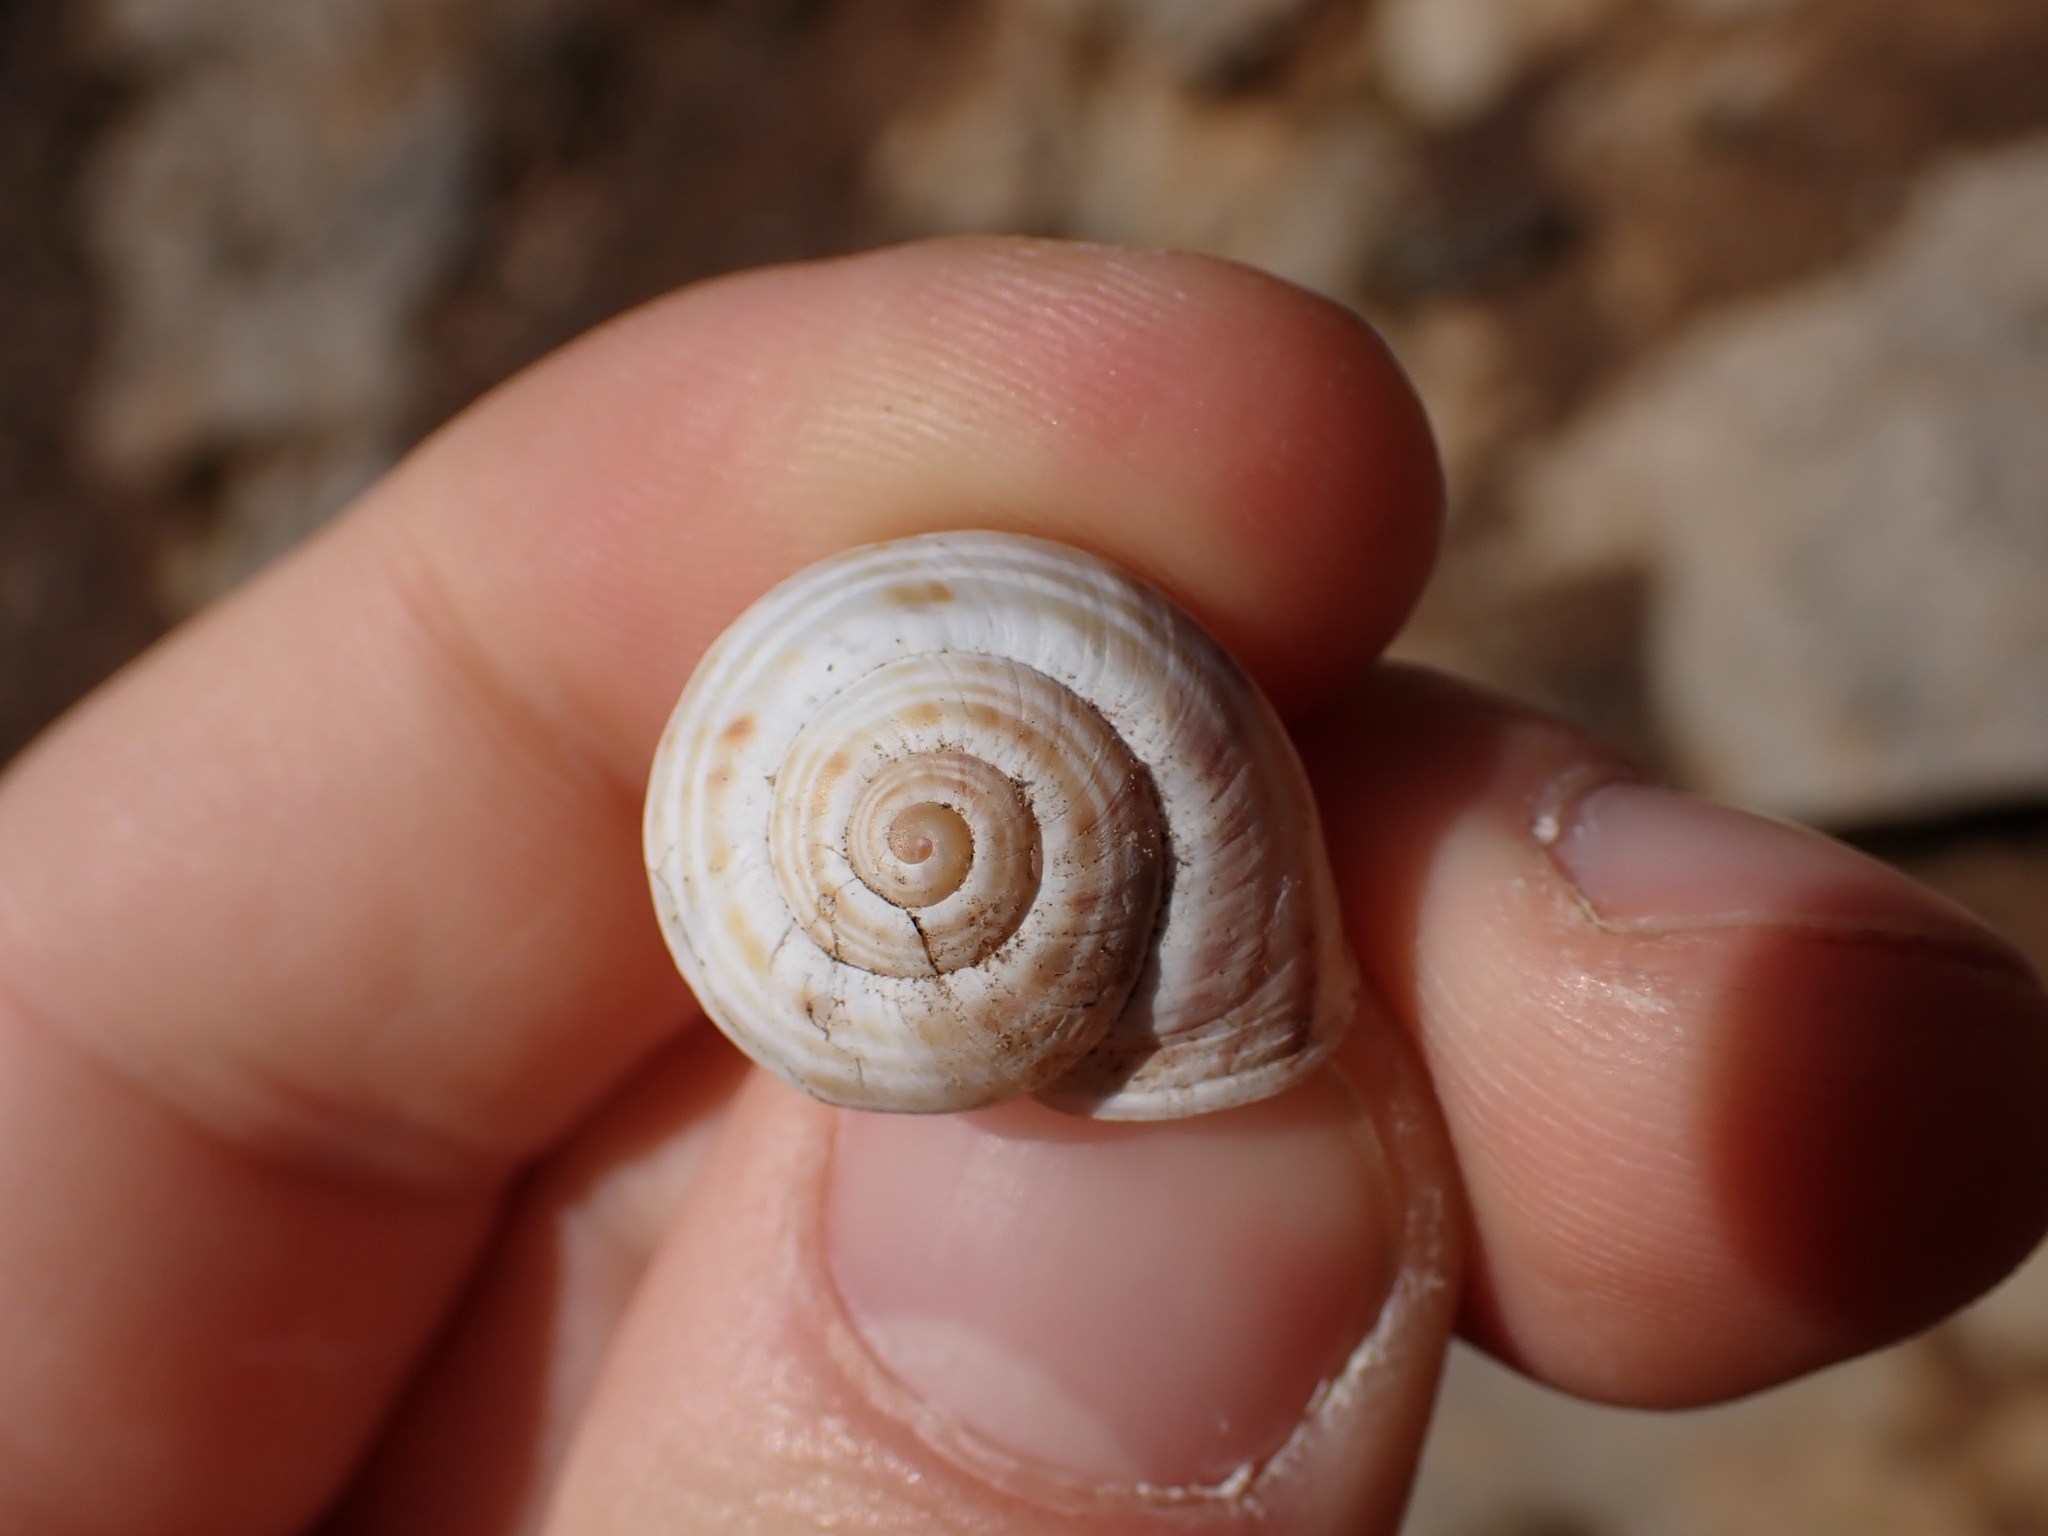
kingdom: Animalia
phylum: Mollusca
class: Gastropoda
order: Stylommatophora
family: Helicidae
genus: Pseudotachea
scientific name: Pseudotachea splendida
